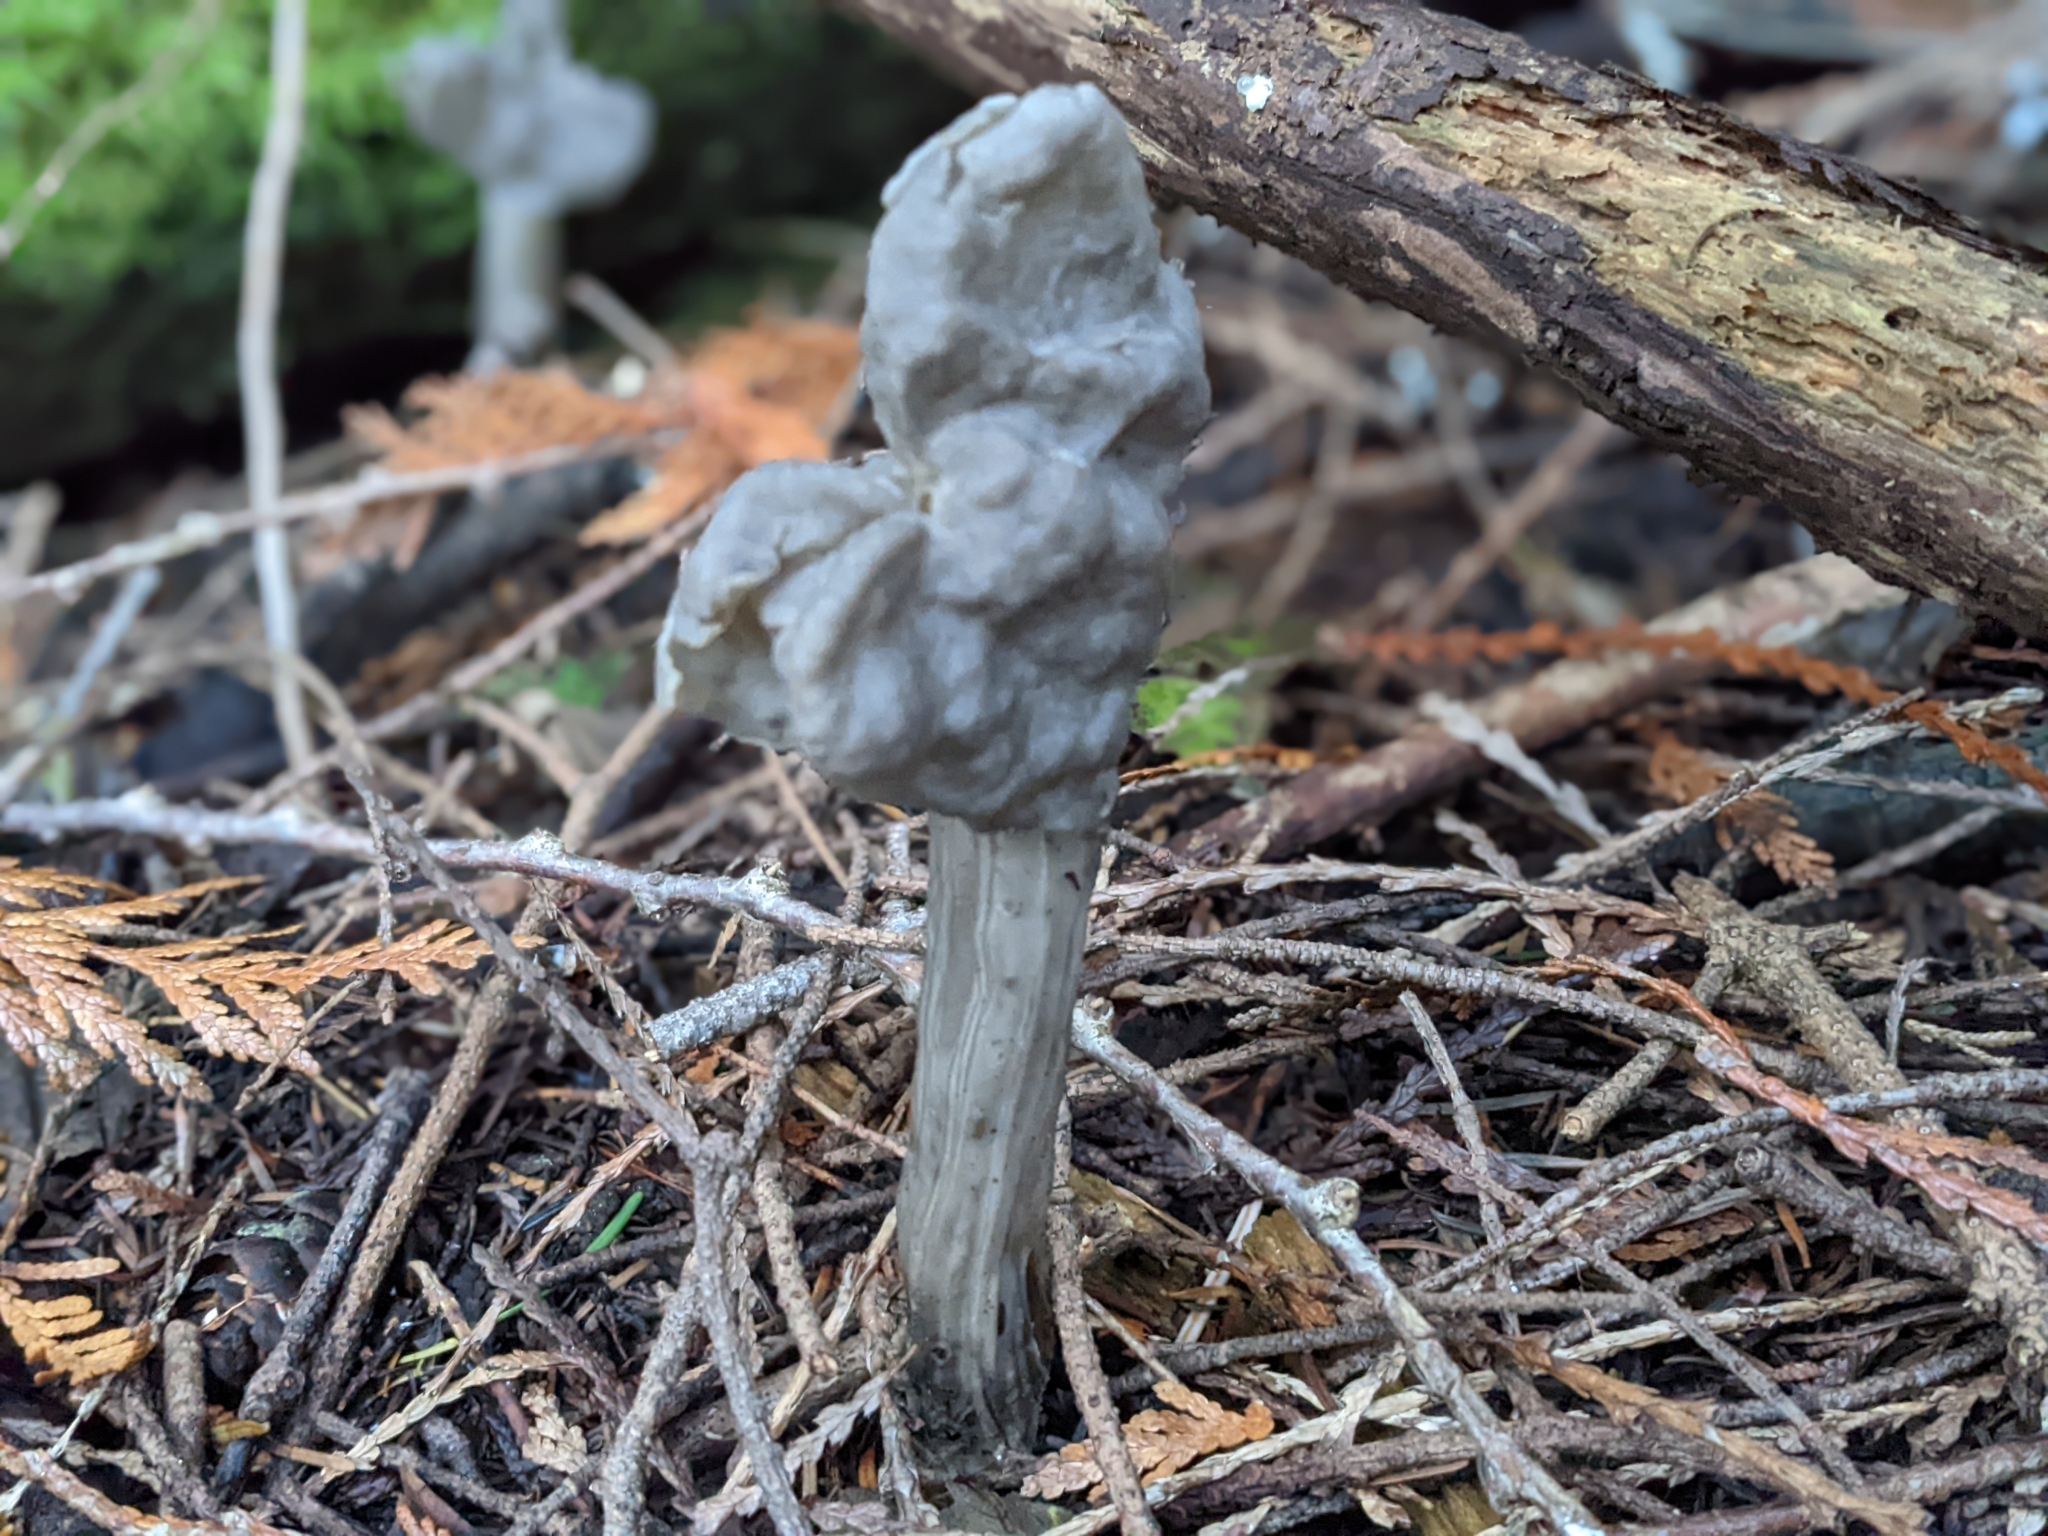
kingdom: Fungi
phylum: Ascomycota
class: Pezizomycetes
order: Pezizales
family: Helvellaceae
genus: Helvella
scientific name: Helvella vespertina
